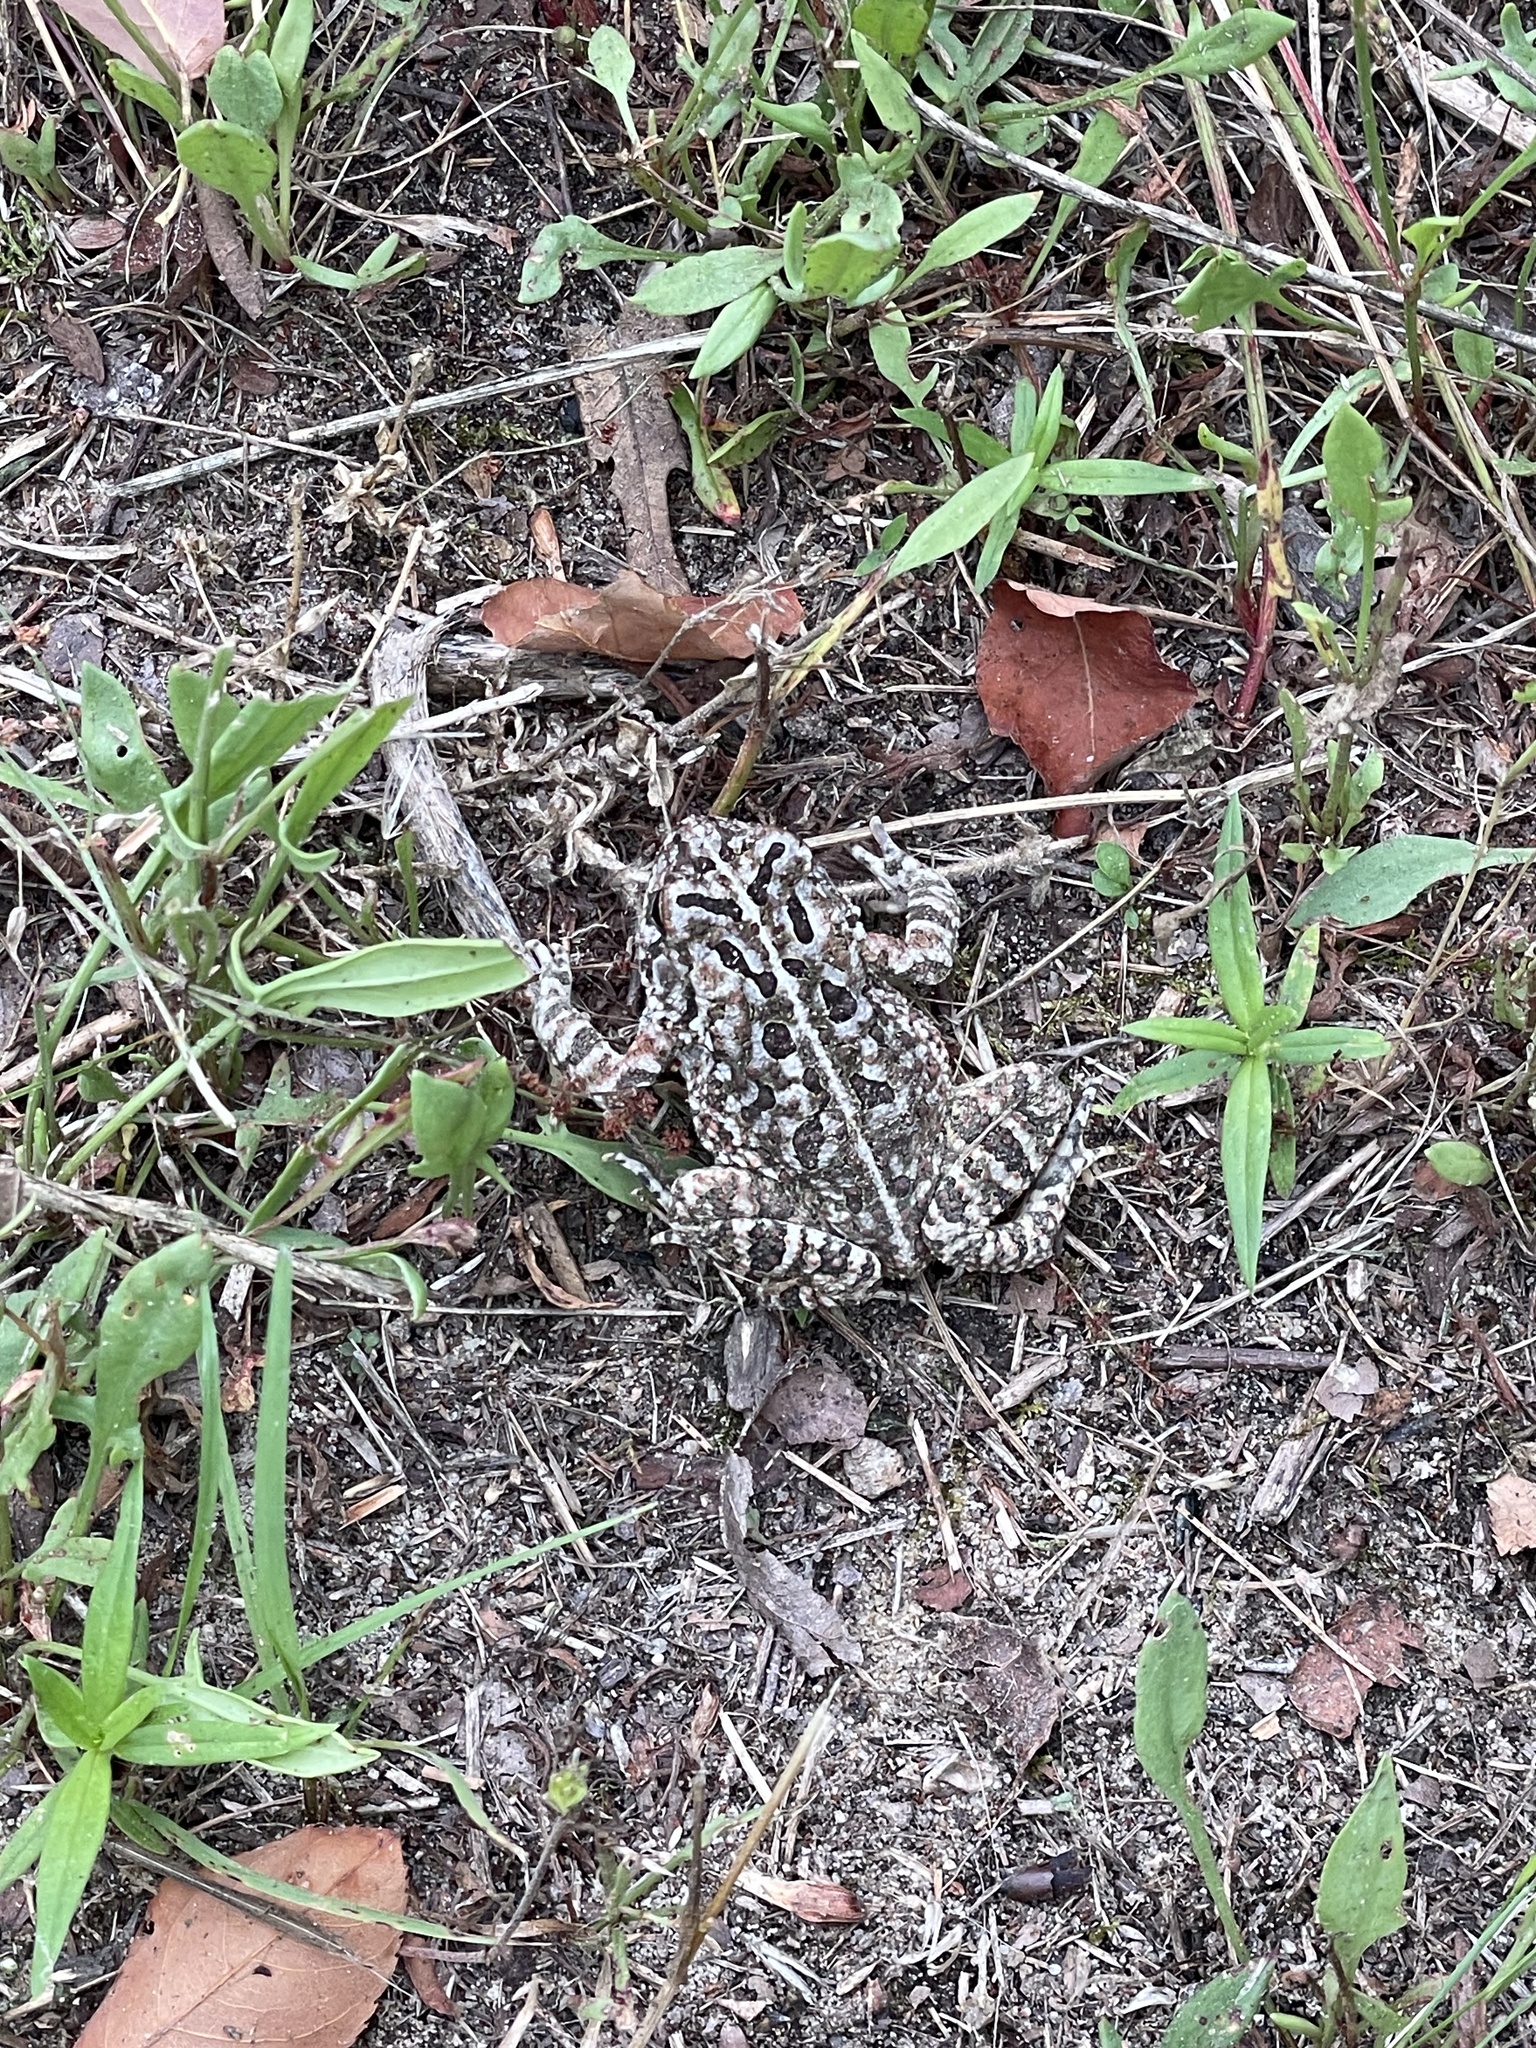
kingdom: Animalia
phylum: Chordata
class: Amphibia
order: Anura
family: Bufonidae
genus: Anaxyrus
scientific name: Anaxyrus fowleri
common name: Fowler's toad
